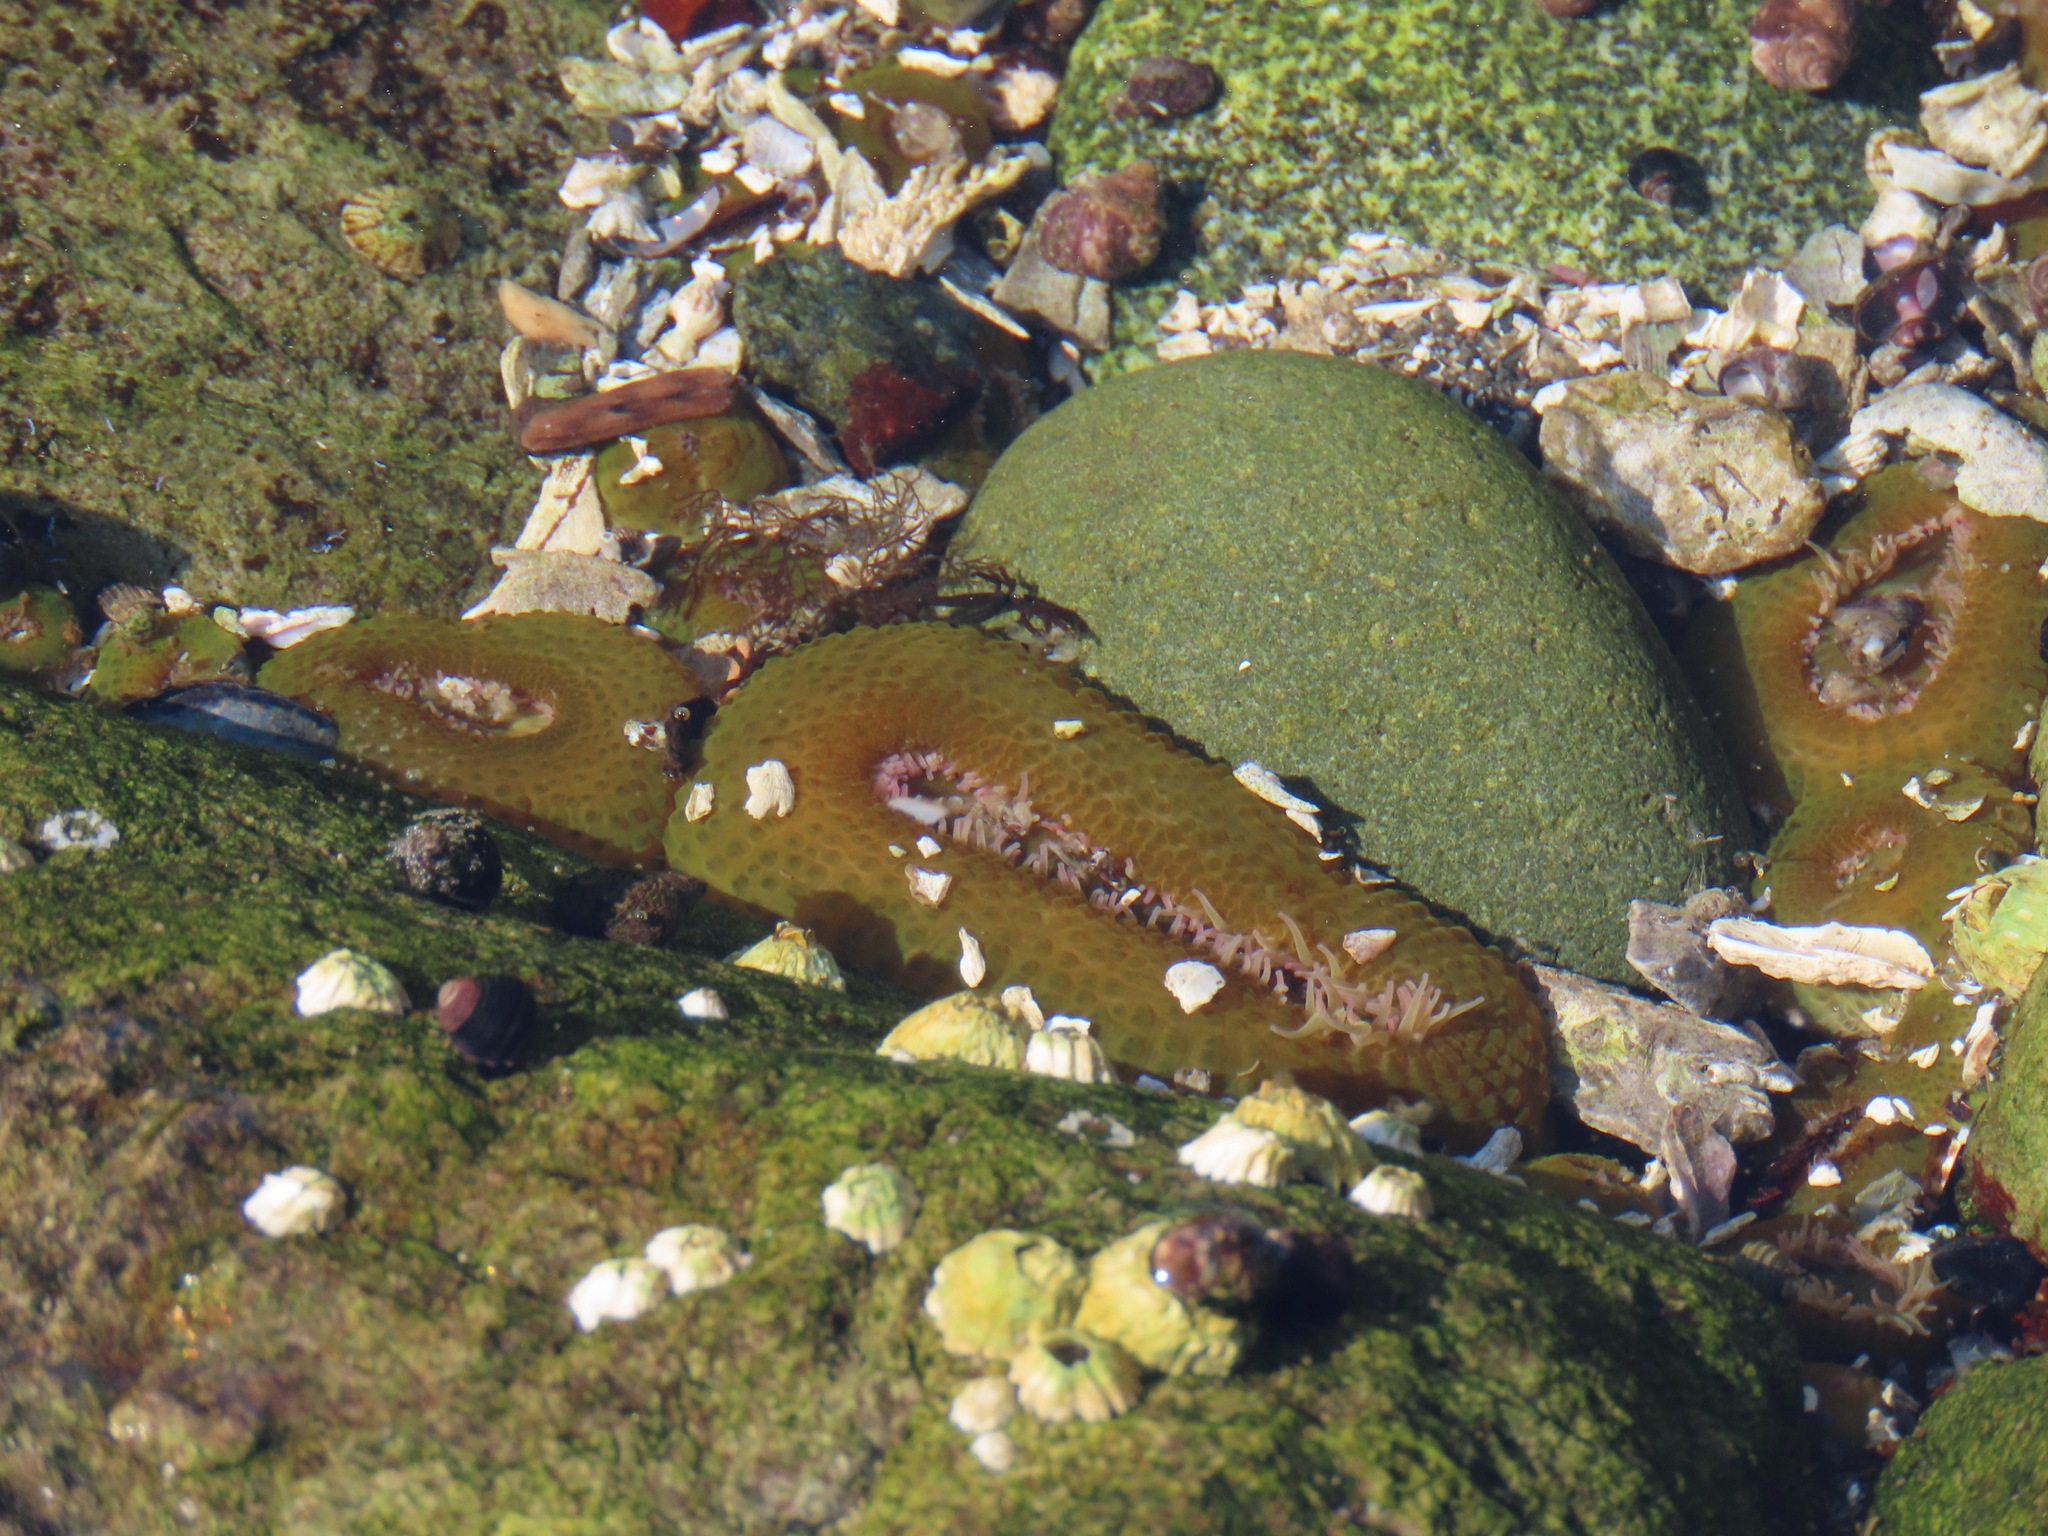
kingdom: Animalia
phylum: Cnidaria
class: Anthozoa
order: Actiniaria
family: Actiniidae
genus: Anthopleura
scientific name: Anthopleura elegantissima
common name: Clonal anemone
